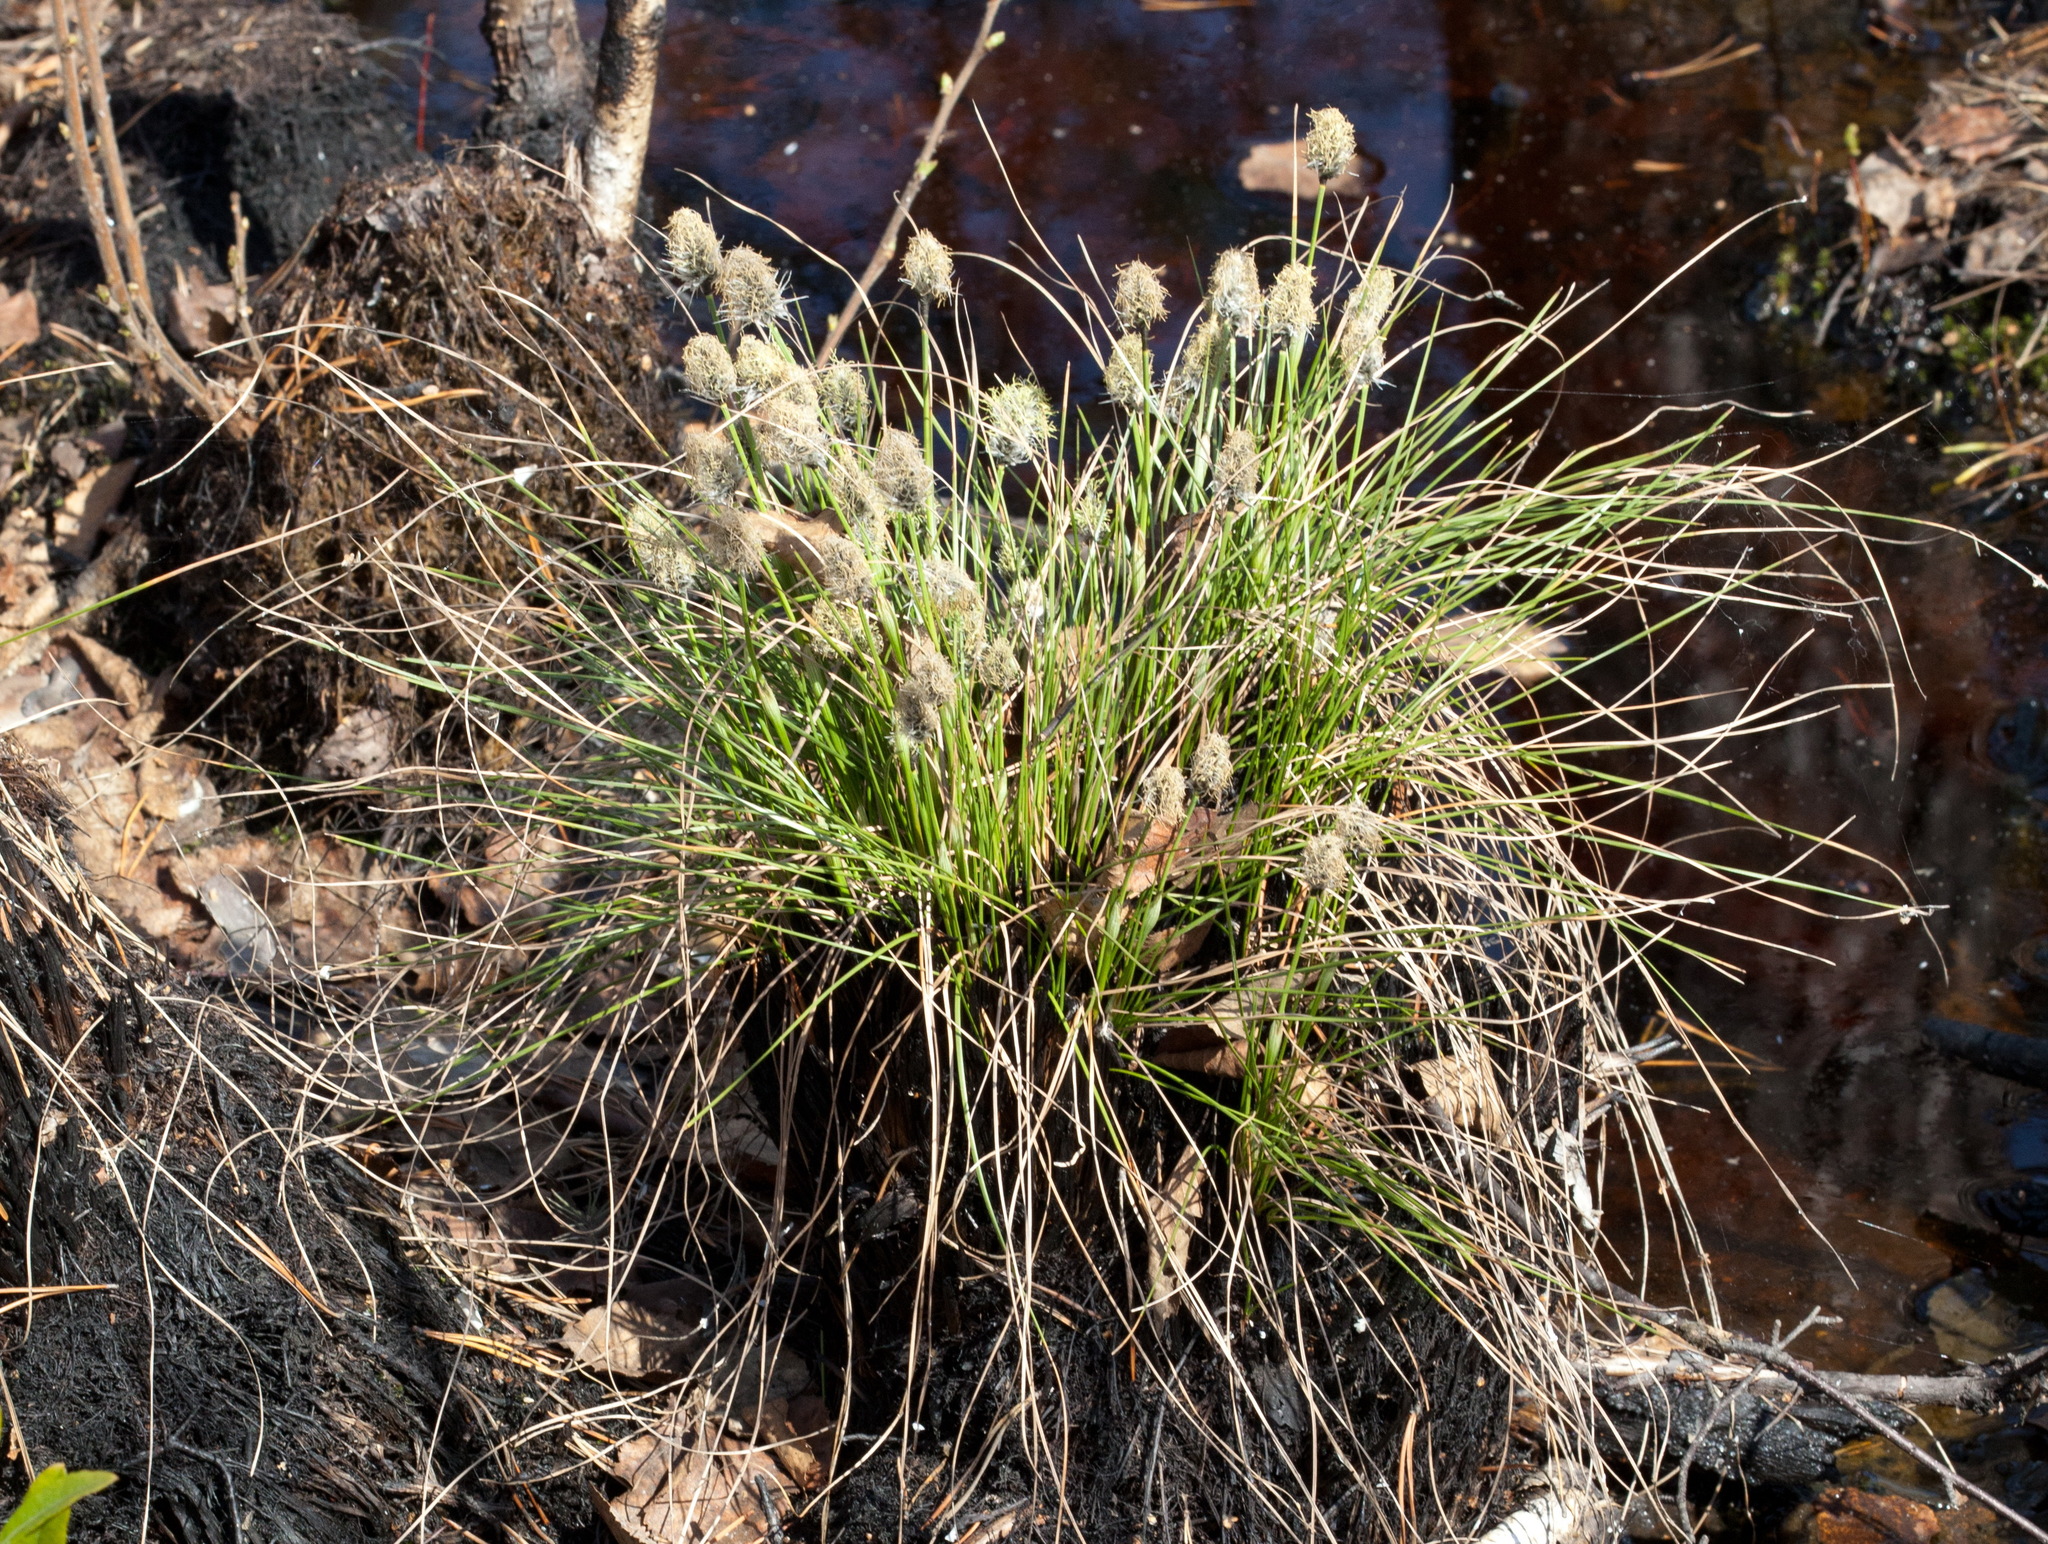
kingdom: Plantae
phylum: Tracheophyta
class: Liliopsida
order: Poales
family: Cyperaceae
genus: Eriophorum
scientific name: Eriophorum vaginatum
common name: Hare's-tail cottongrass
